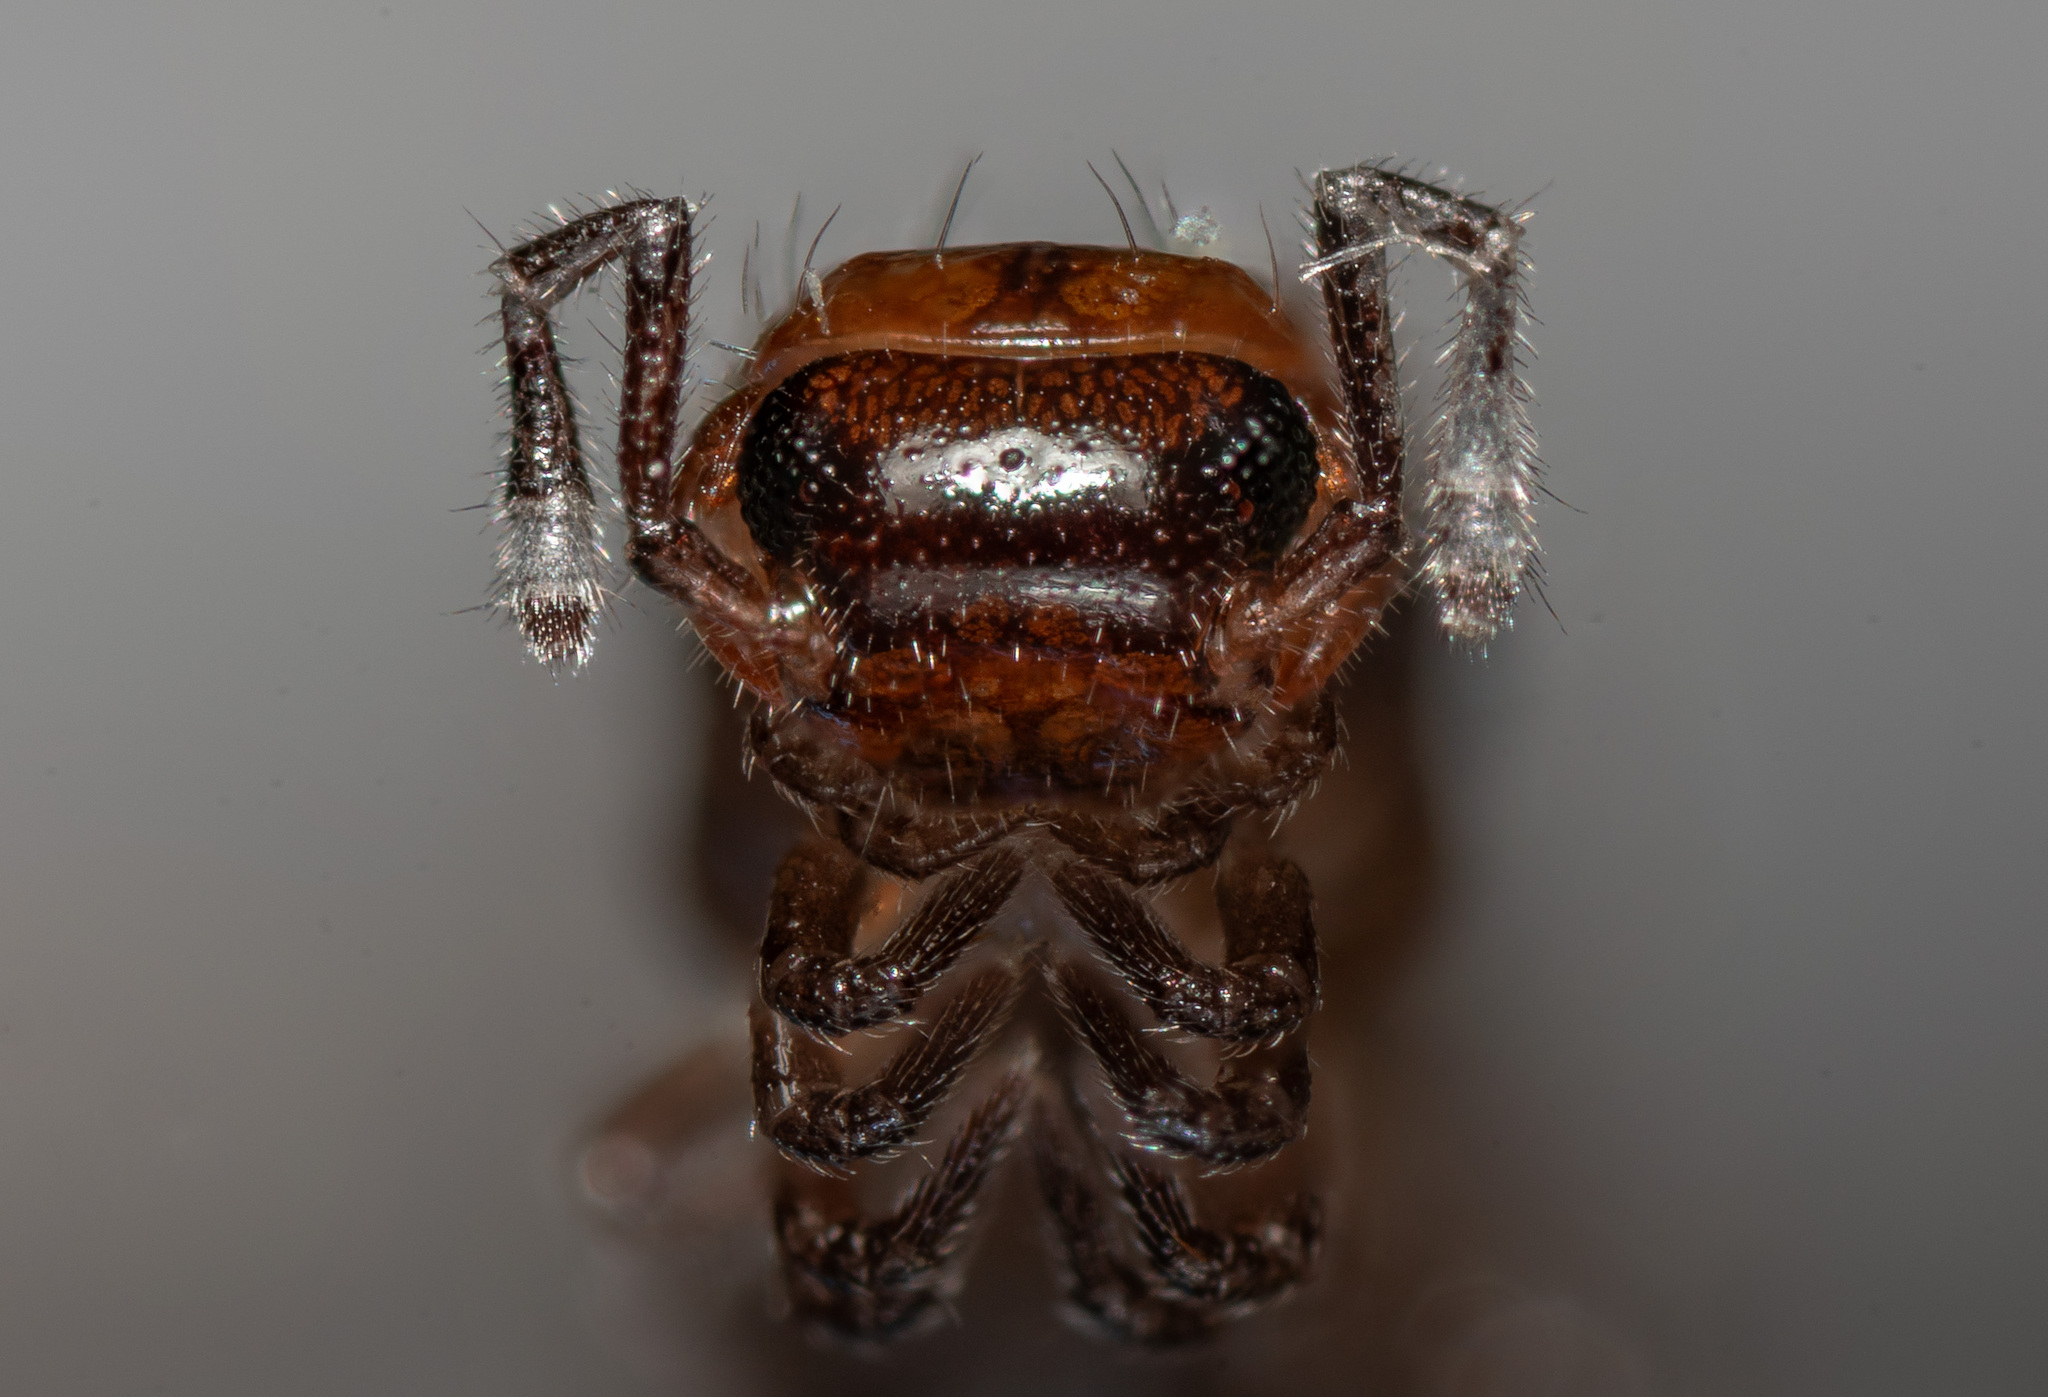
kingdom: Animalia
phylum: Arthropoda
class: Diplopoda
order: Chordeumatida
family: Craspedosomatidae
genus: Craspedosoma
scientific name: Craspedosoma rawlinsii
